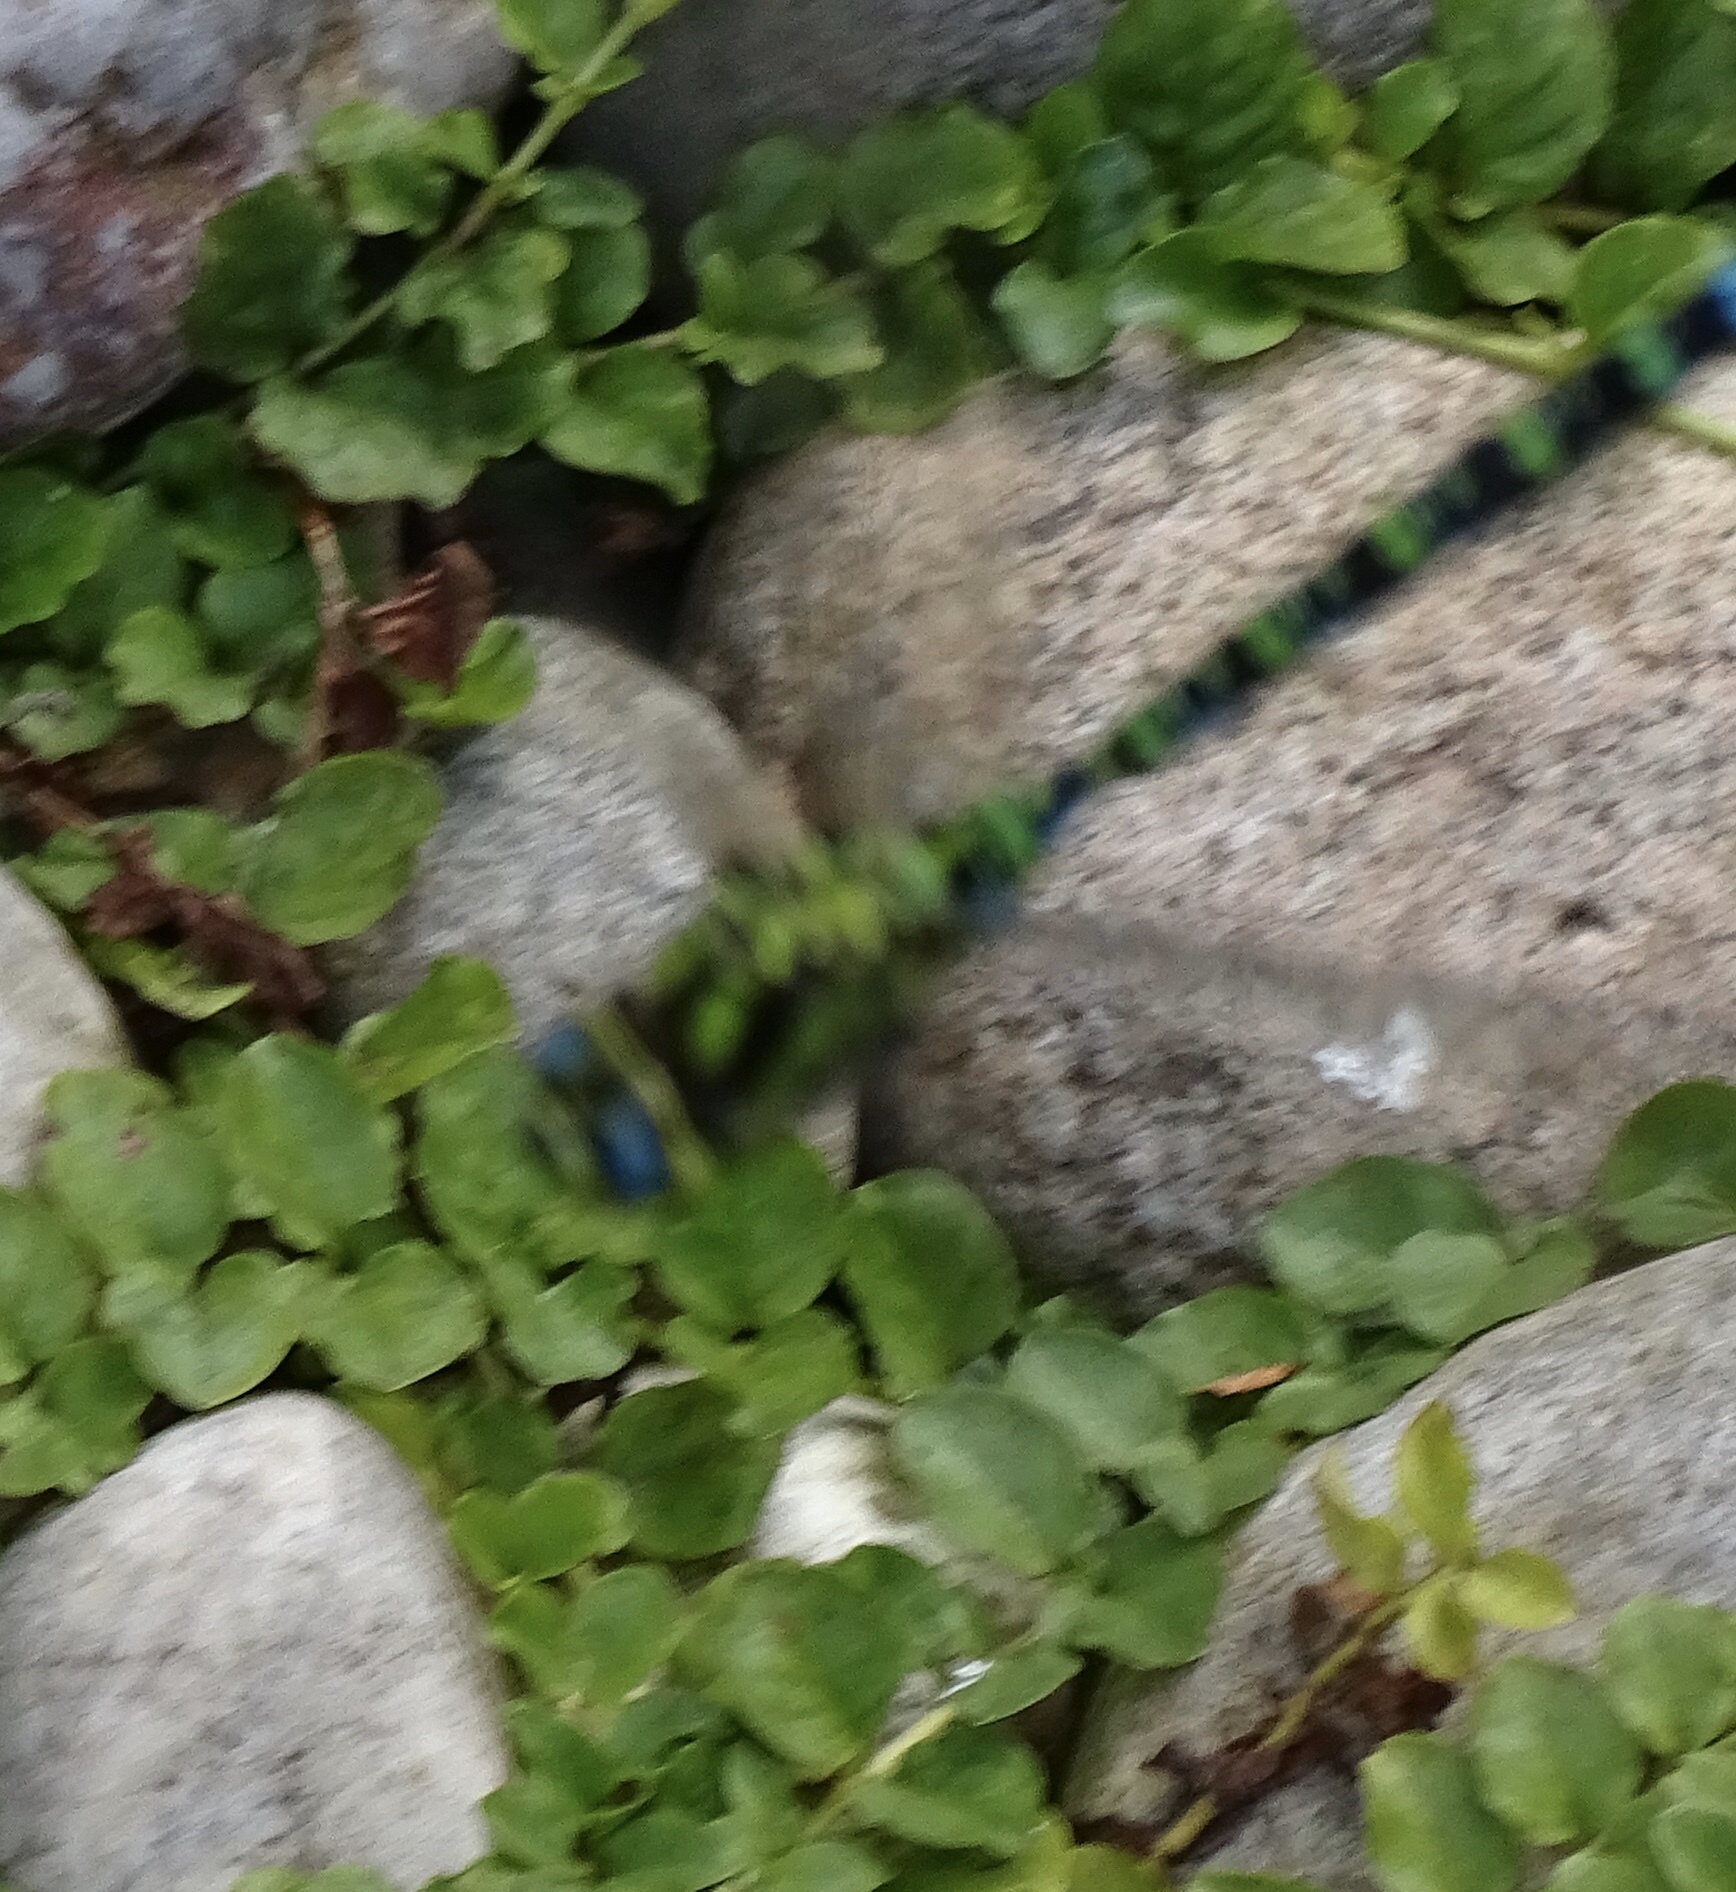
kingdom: Animalia
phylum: Arthropoda
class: Insecta
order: Odonata
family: Aeshnidae
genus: Aeshna
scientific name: Aeshna cyanea
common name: Southern hawker
